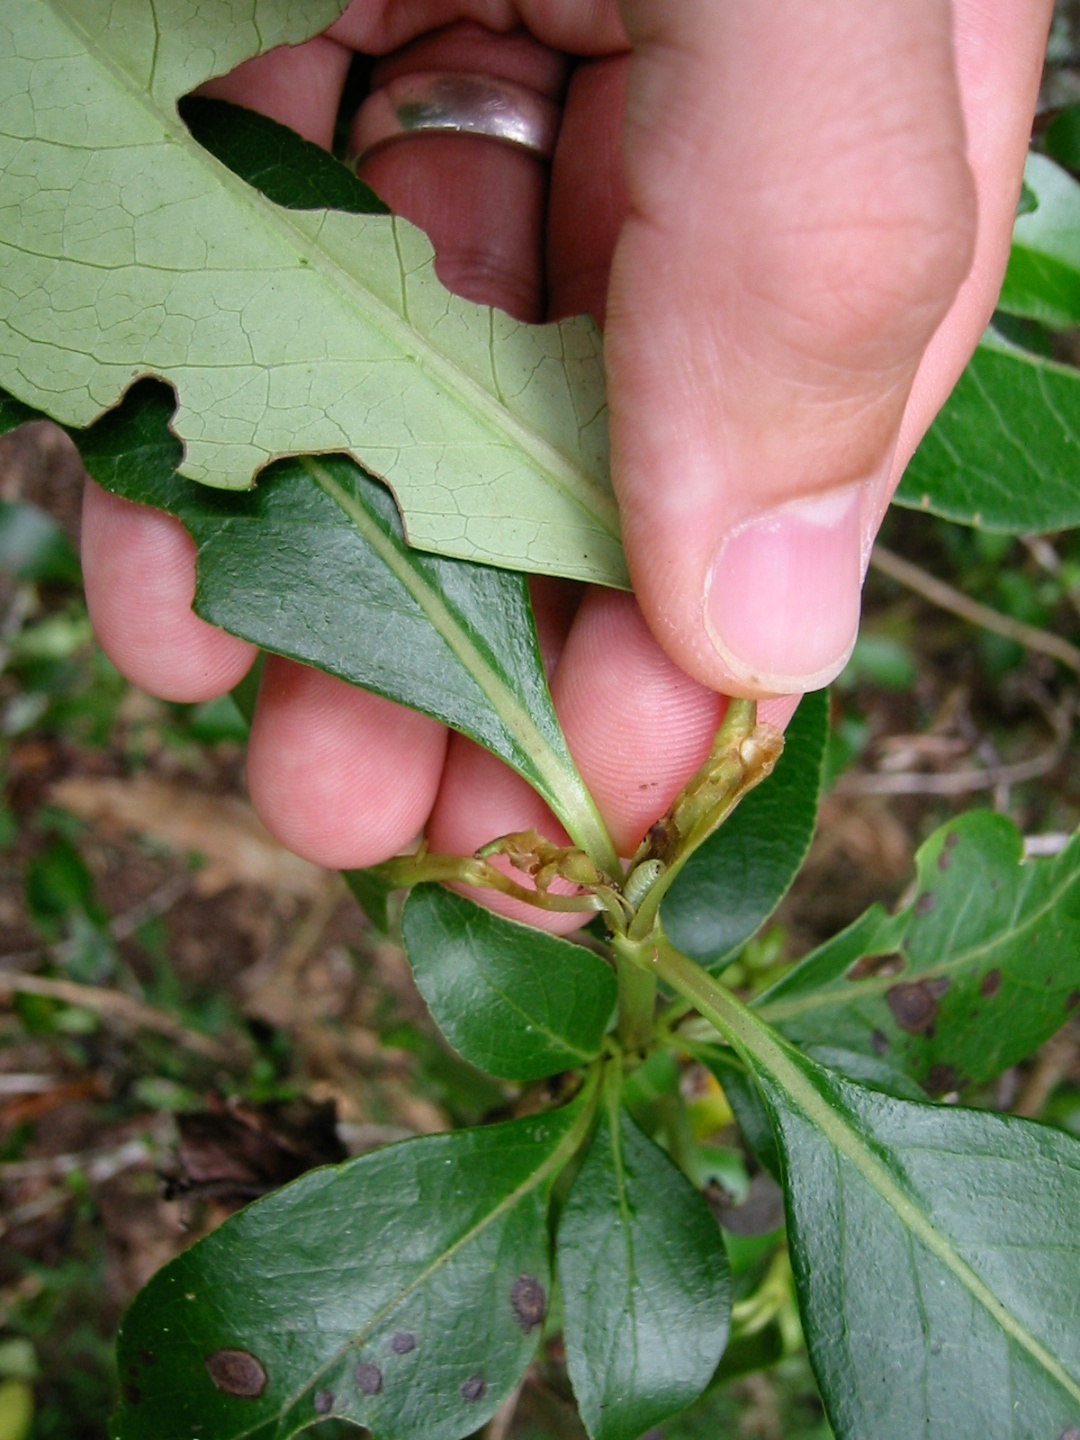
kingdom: Animalia
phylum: Arthropoda
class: Insecta
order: Lepidoptera
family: Galacticidae
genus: Tanaoctena
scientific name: Tanaoctena dubia
